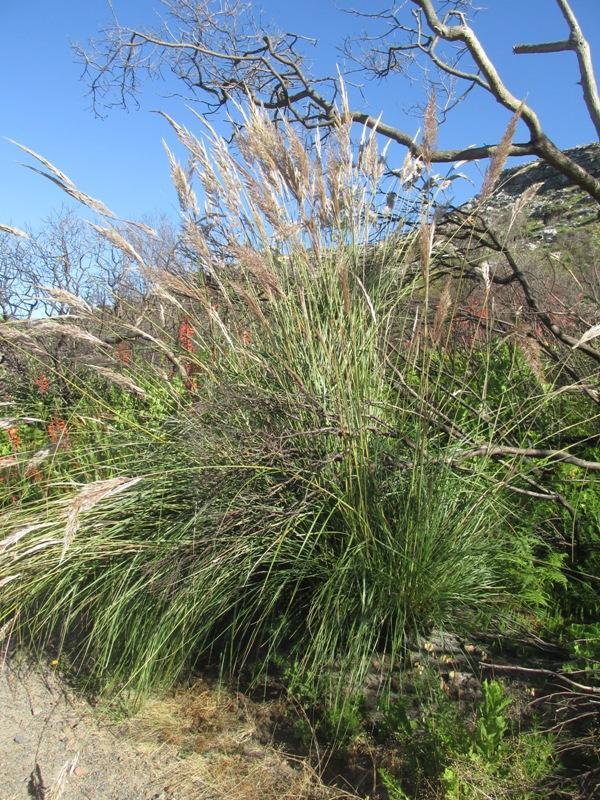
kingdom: Plantae
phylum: Tracheophyta
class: Liliopsida
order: Poales
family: Poaceae
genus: Capeochloa
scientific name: Capeochloa cincta
